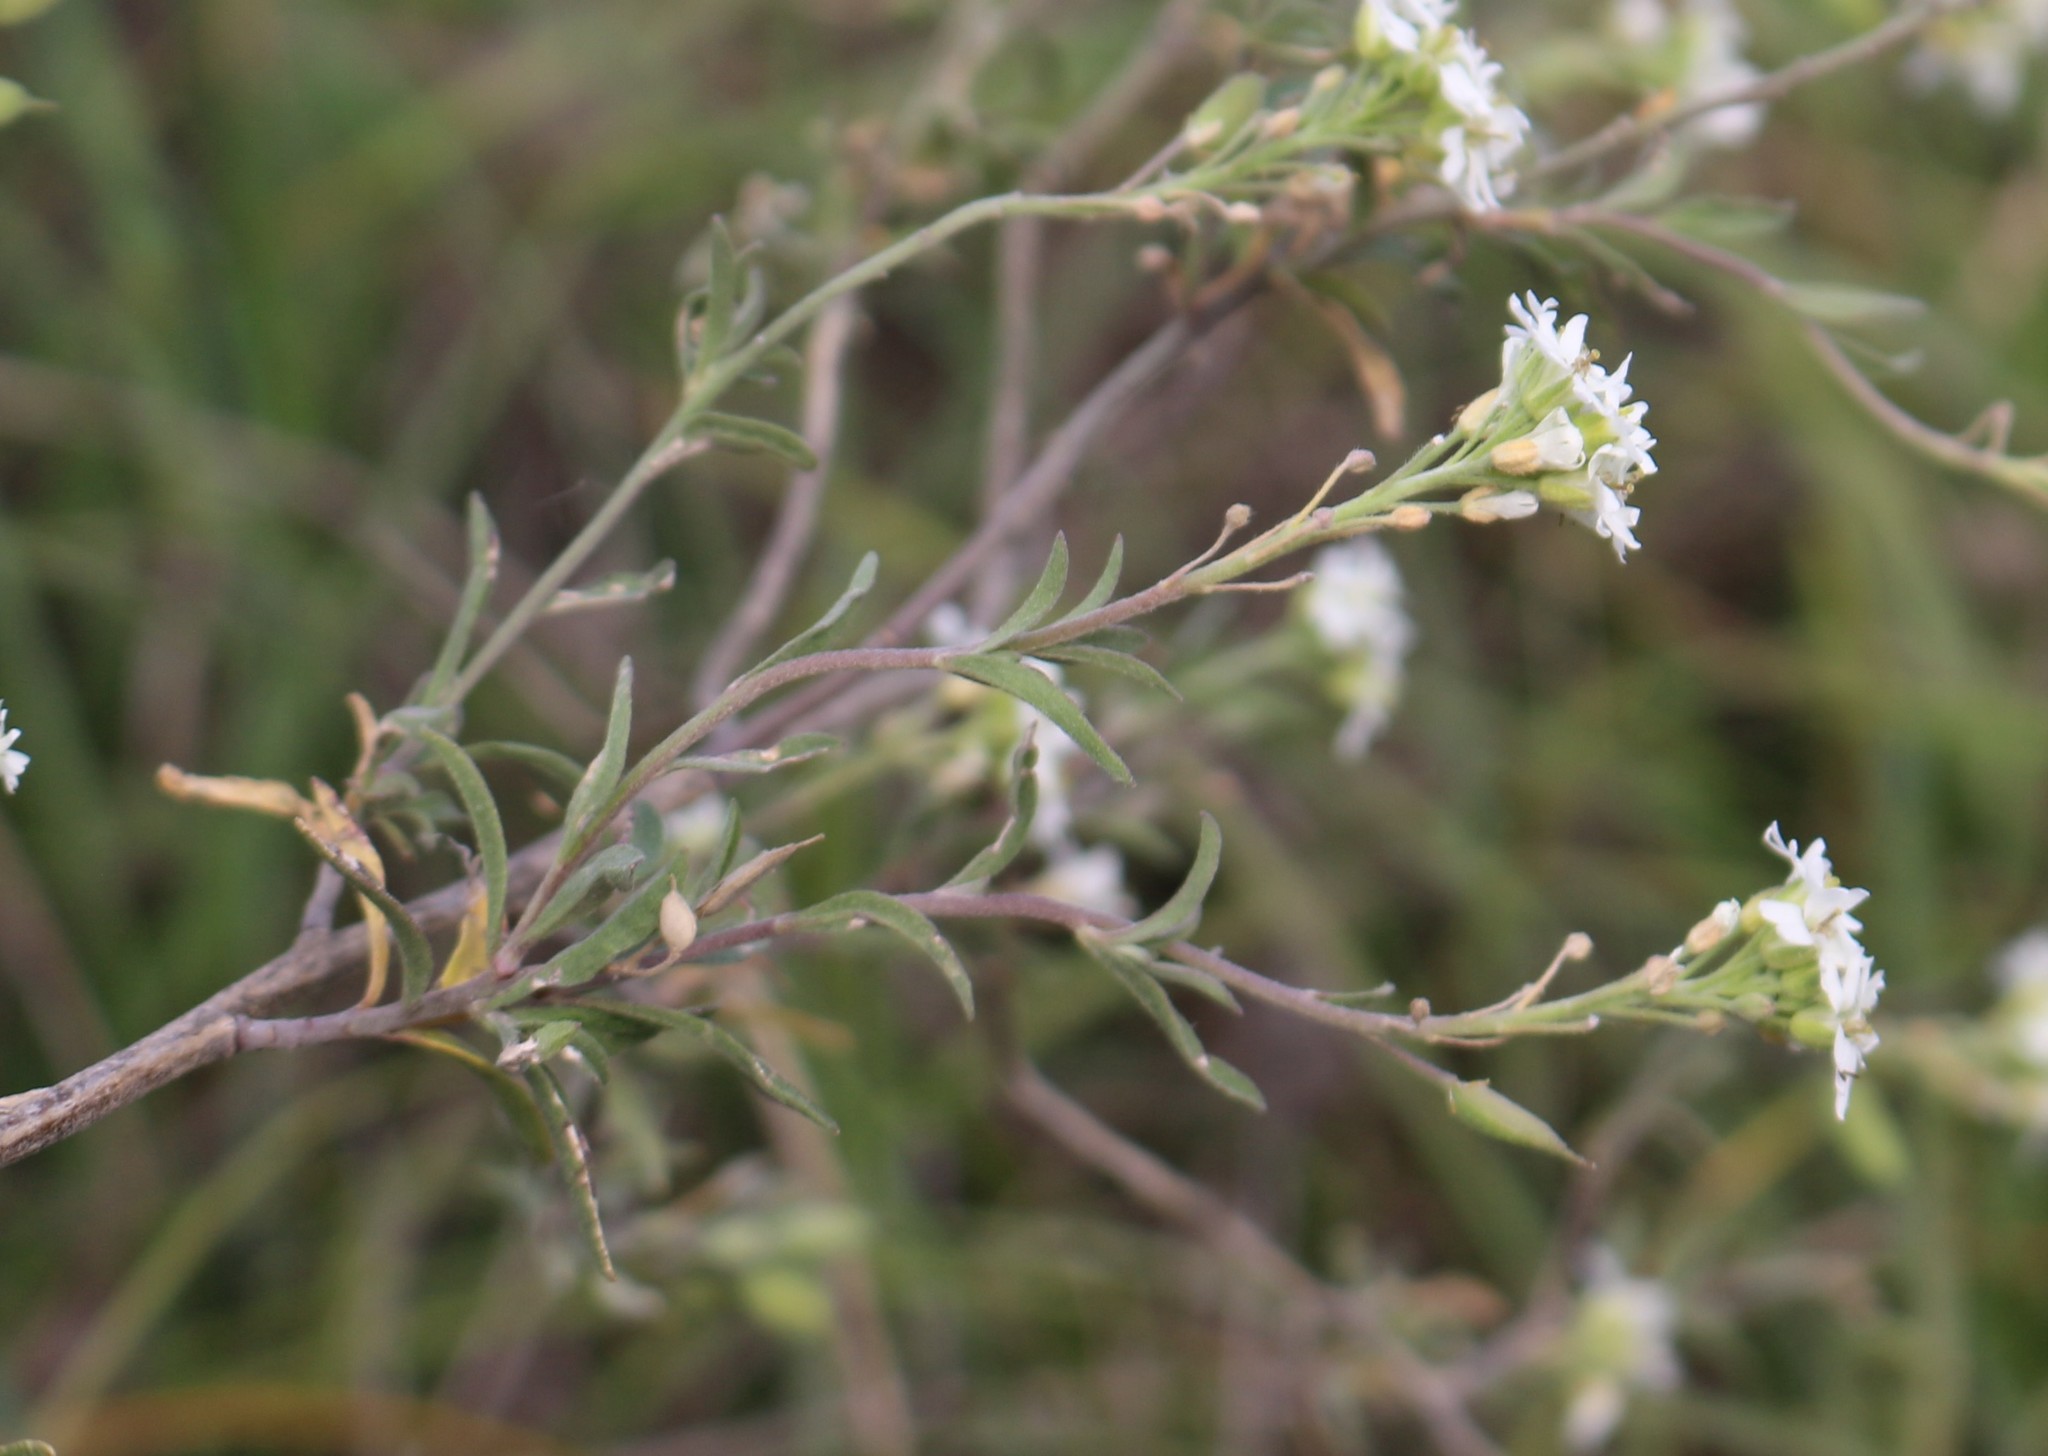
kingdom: Plantae
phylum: Tracheophyta
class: Magnoliopsida
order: Brassicales
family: Brassicaceae
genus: Berteroa
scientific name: Berteroa incana
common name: Hoary alison
